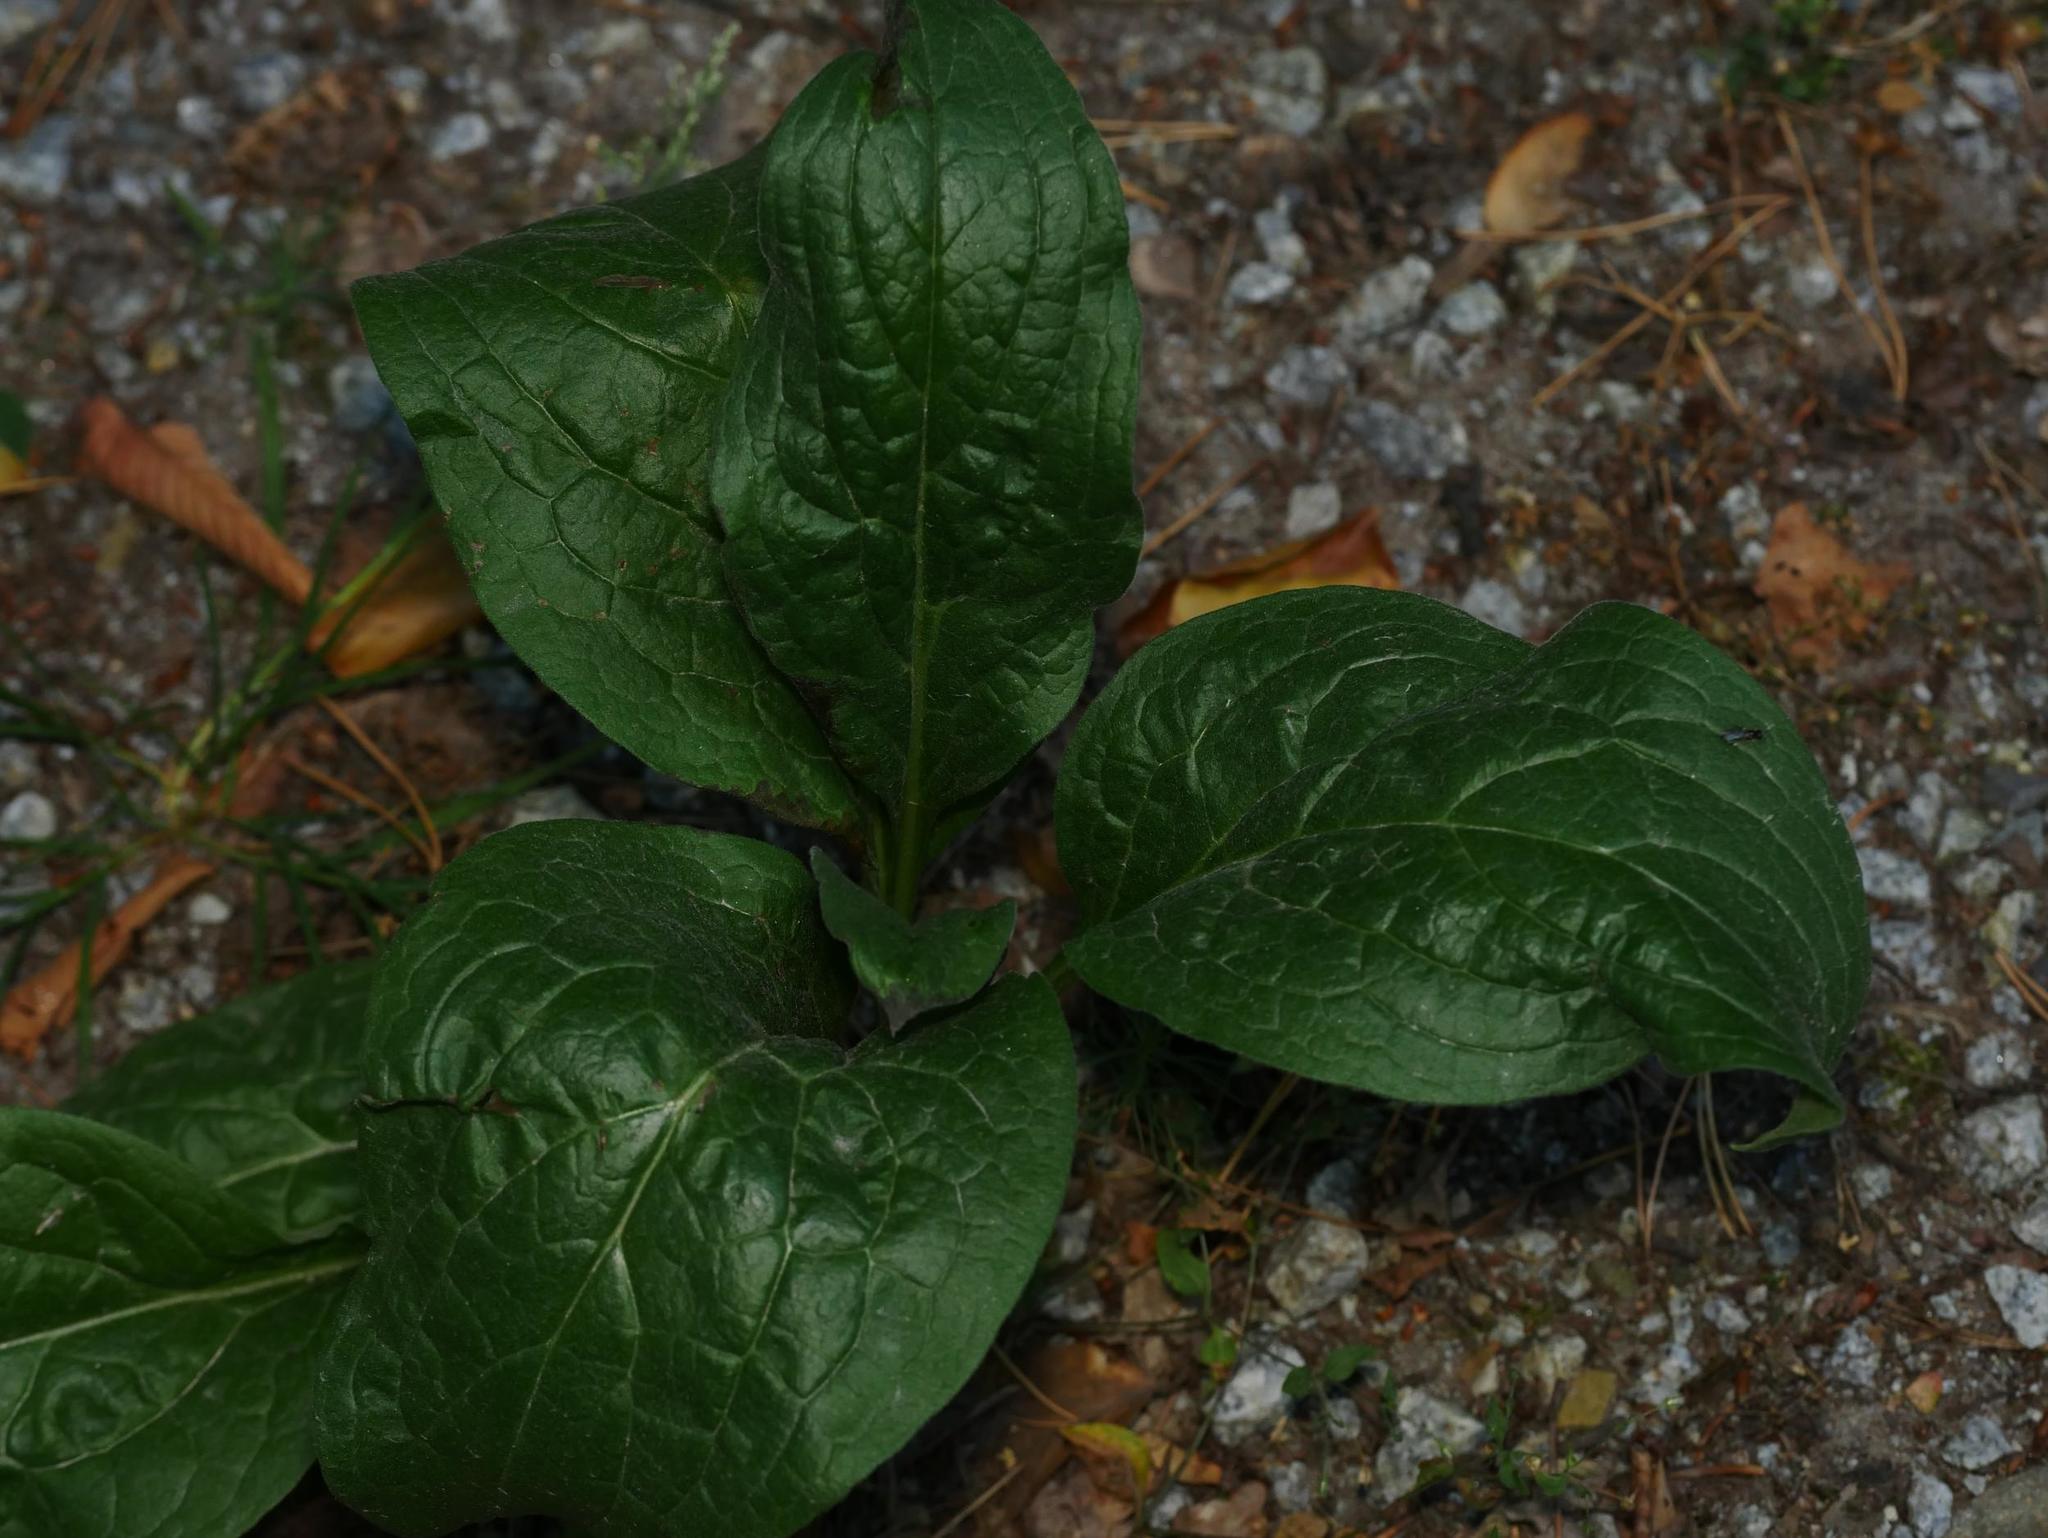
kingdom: Plantae
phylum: Tracheophyta
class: Magnoliopsida
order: Boraginales
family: Boraginaceae
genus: Cynoglossum
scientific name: Cynoglossum officinale
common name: Hound's-tongue
